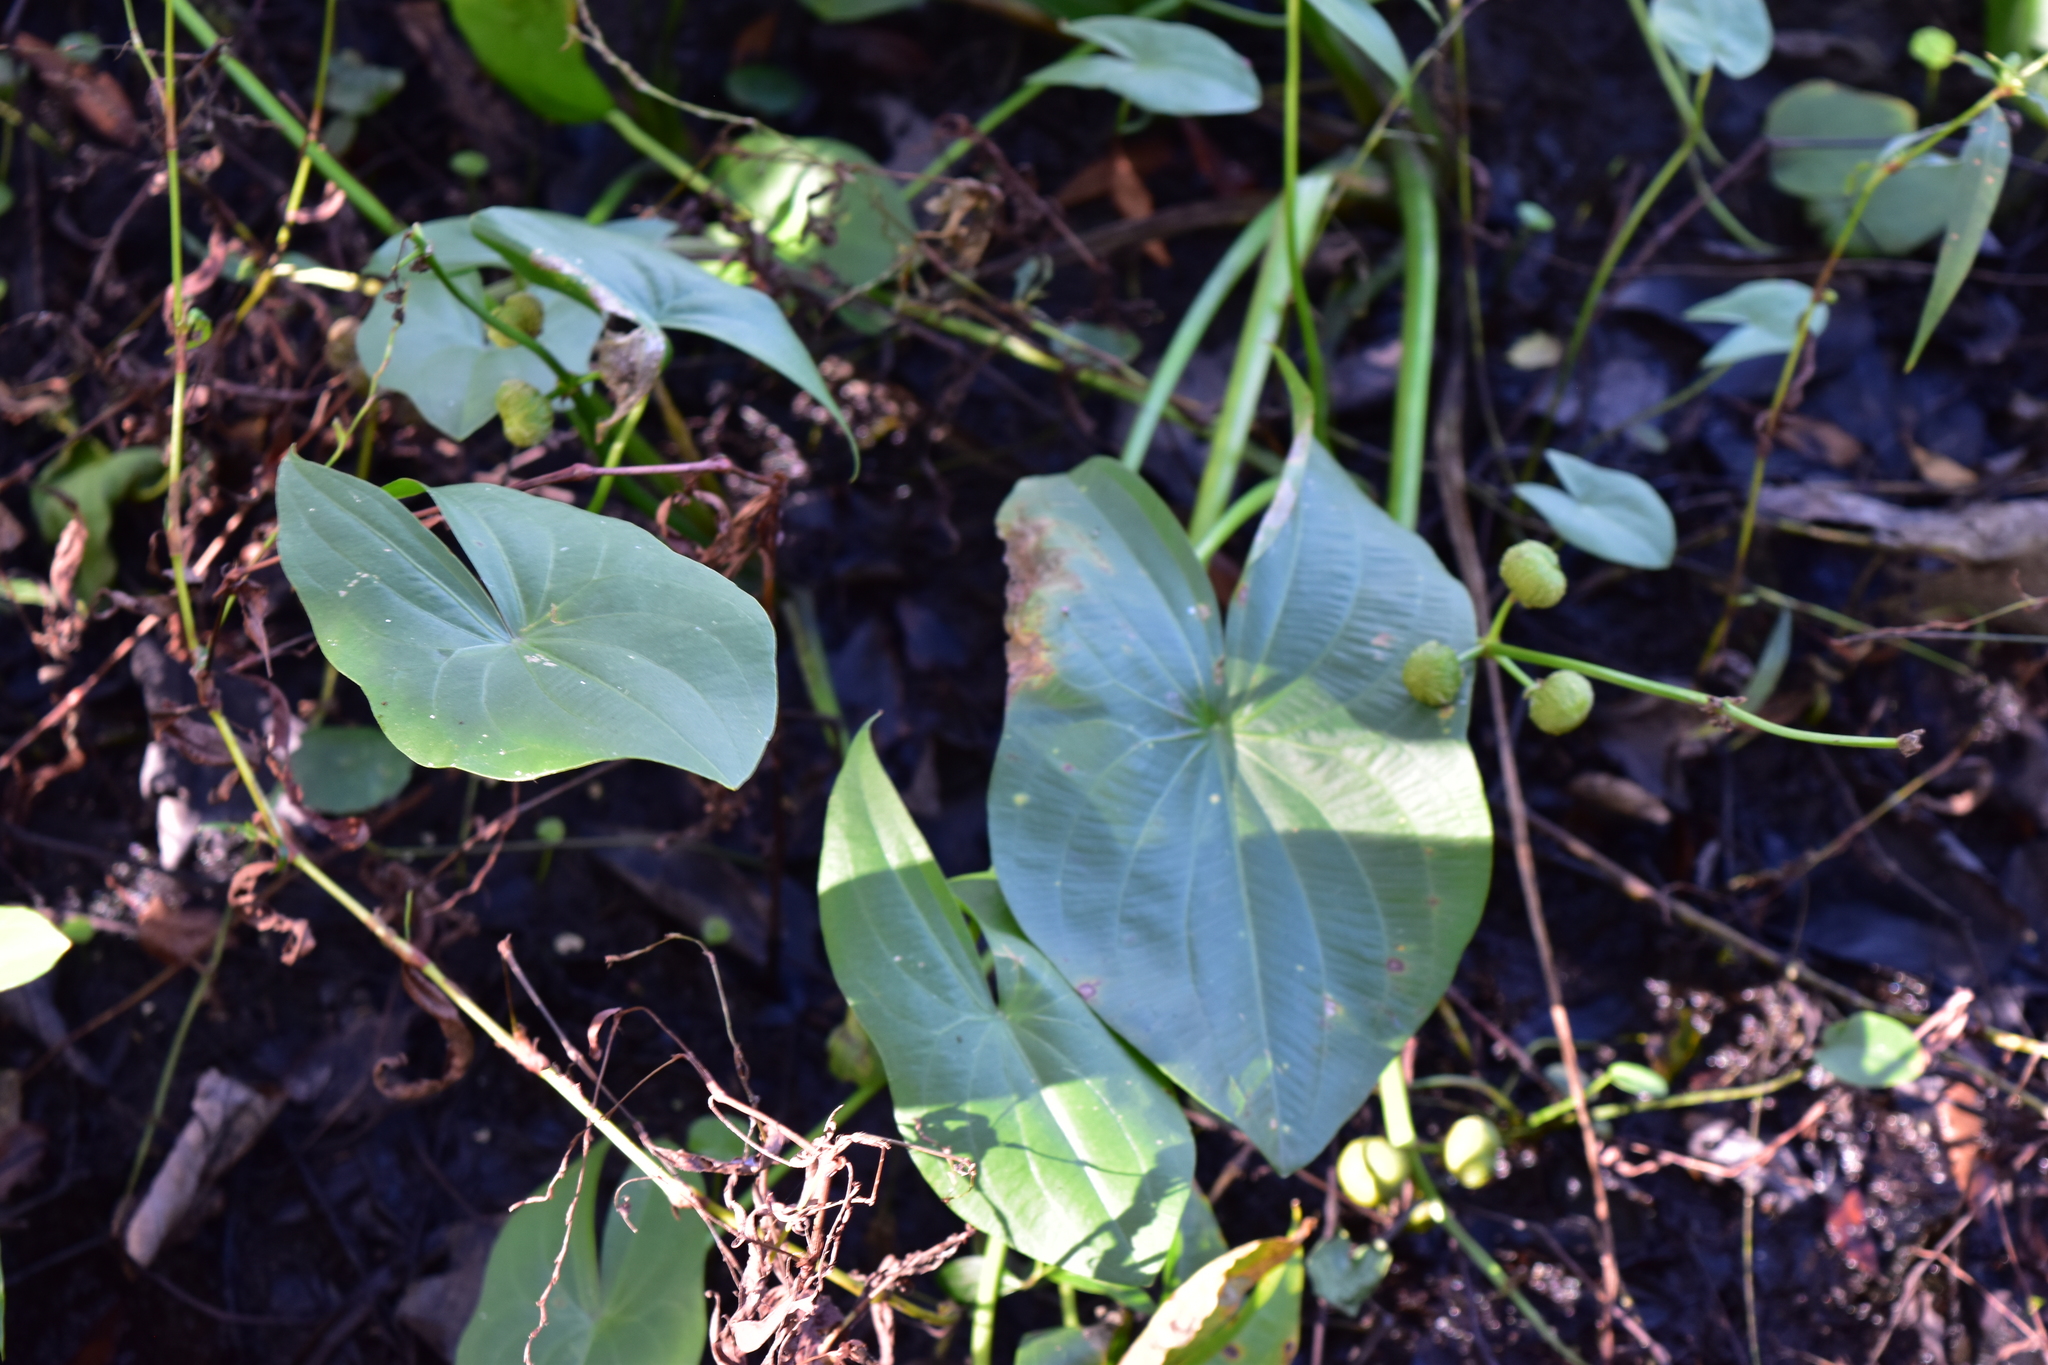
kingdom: Plantae
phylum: Tracheophyta
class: Liliopsida
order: Alismatales
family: Alismataceae
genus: Sagittaria
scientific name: Sagittaria latifolia
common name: Duck-potato
